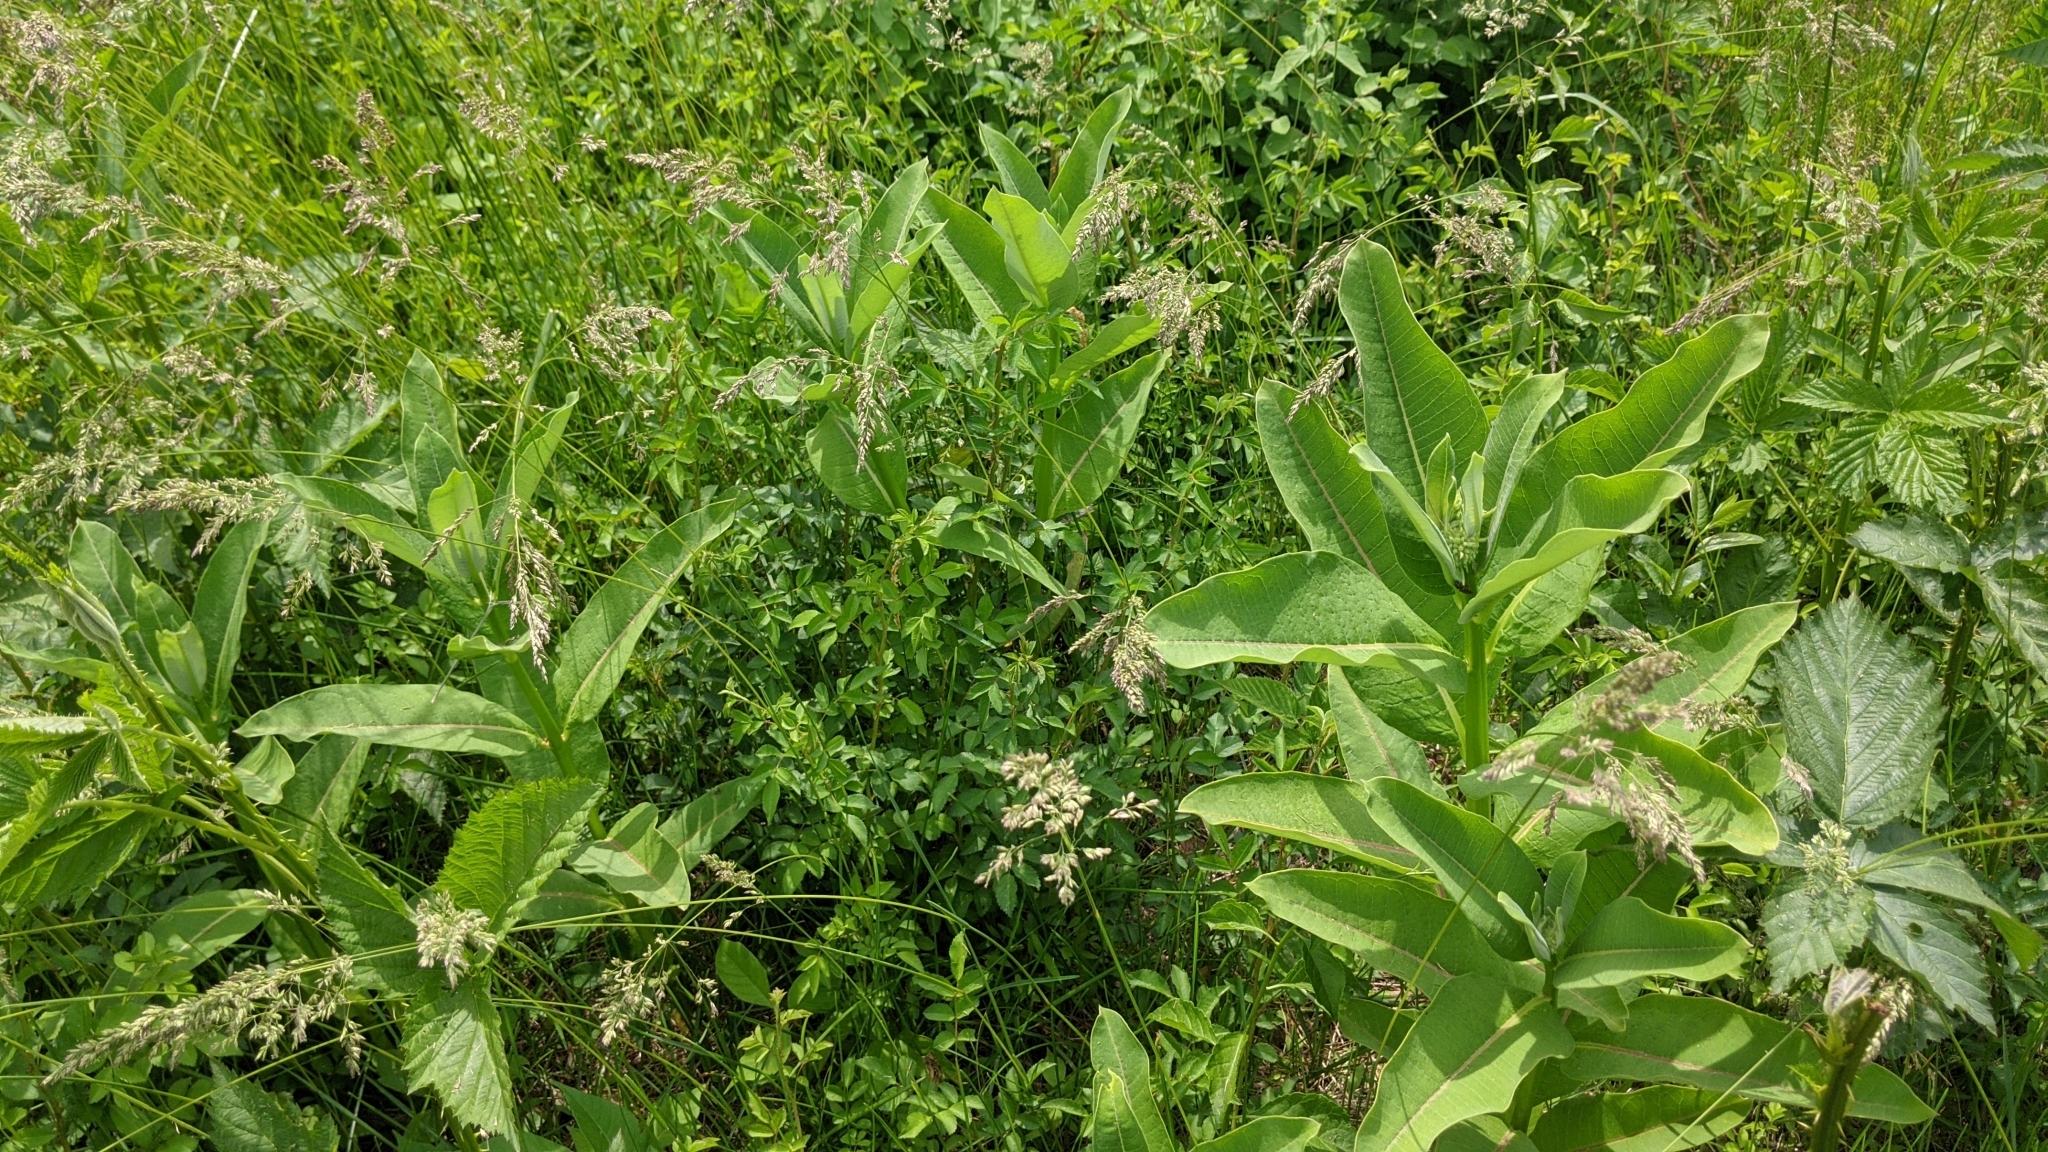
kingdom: Plantae
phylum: Tracheophyta
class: Magnoliopsida
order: Gentianales
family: Apocynaceae
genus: Asclepias
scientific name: Asclepias syriaca
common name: Common milkweed
